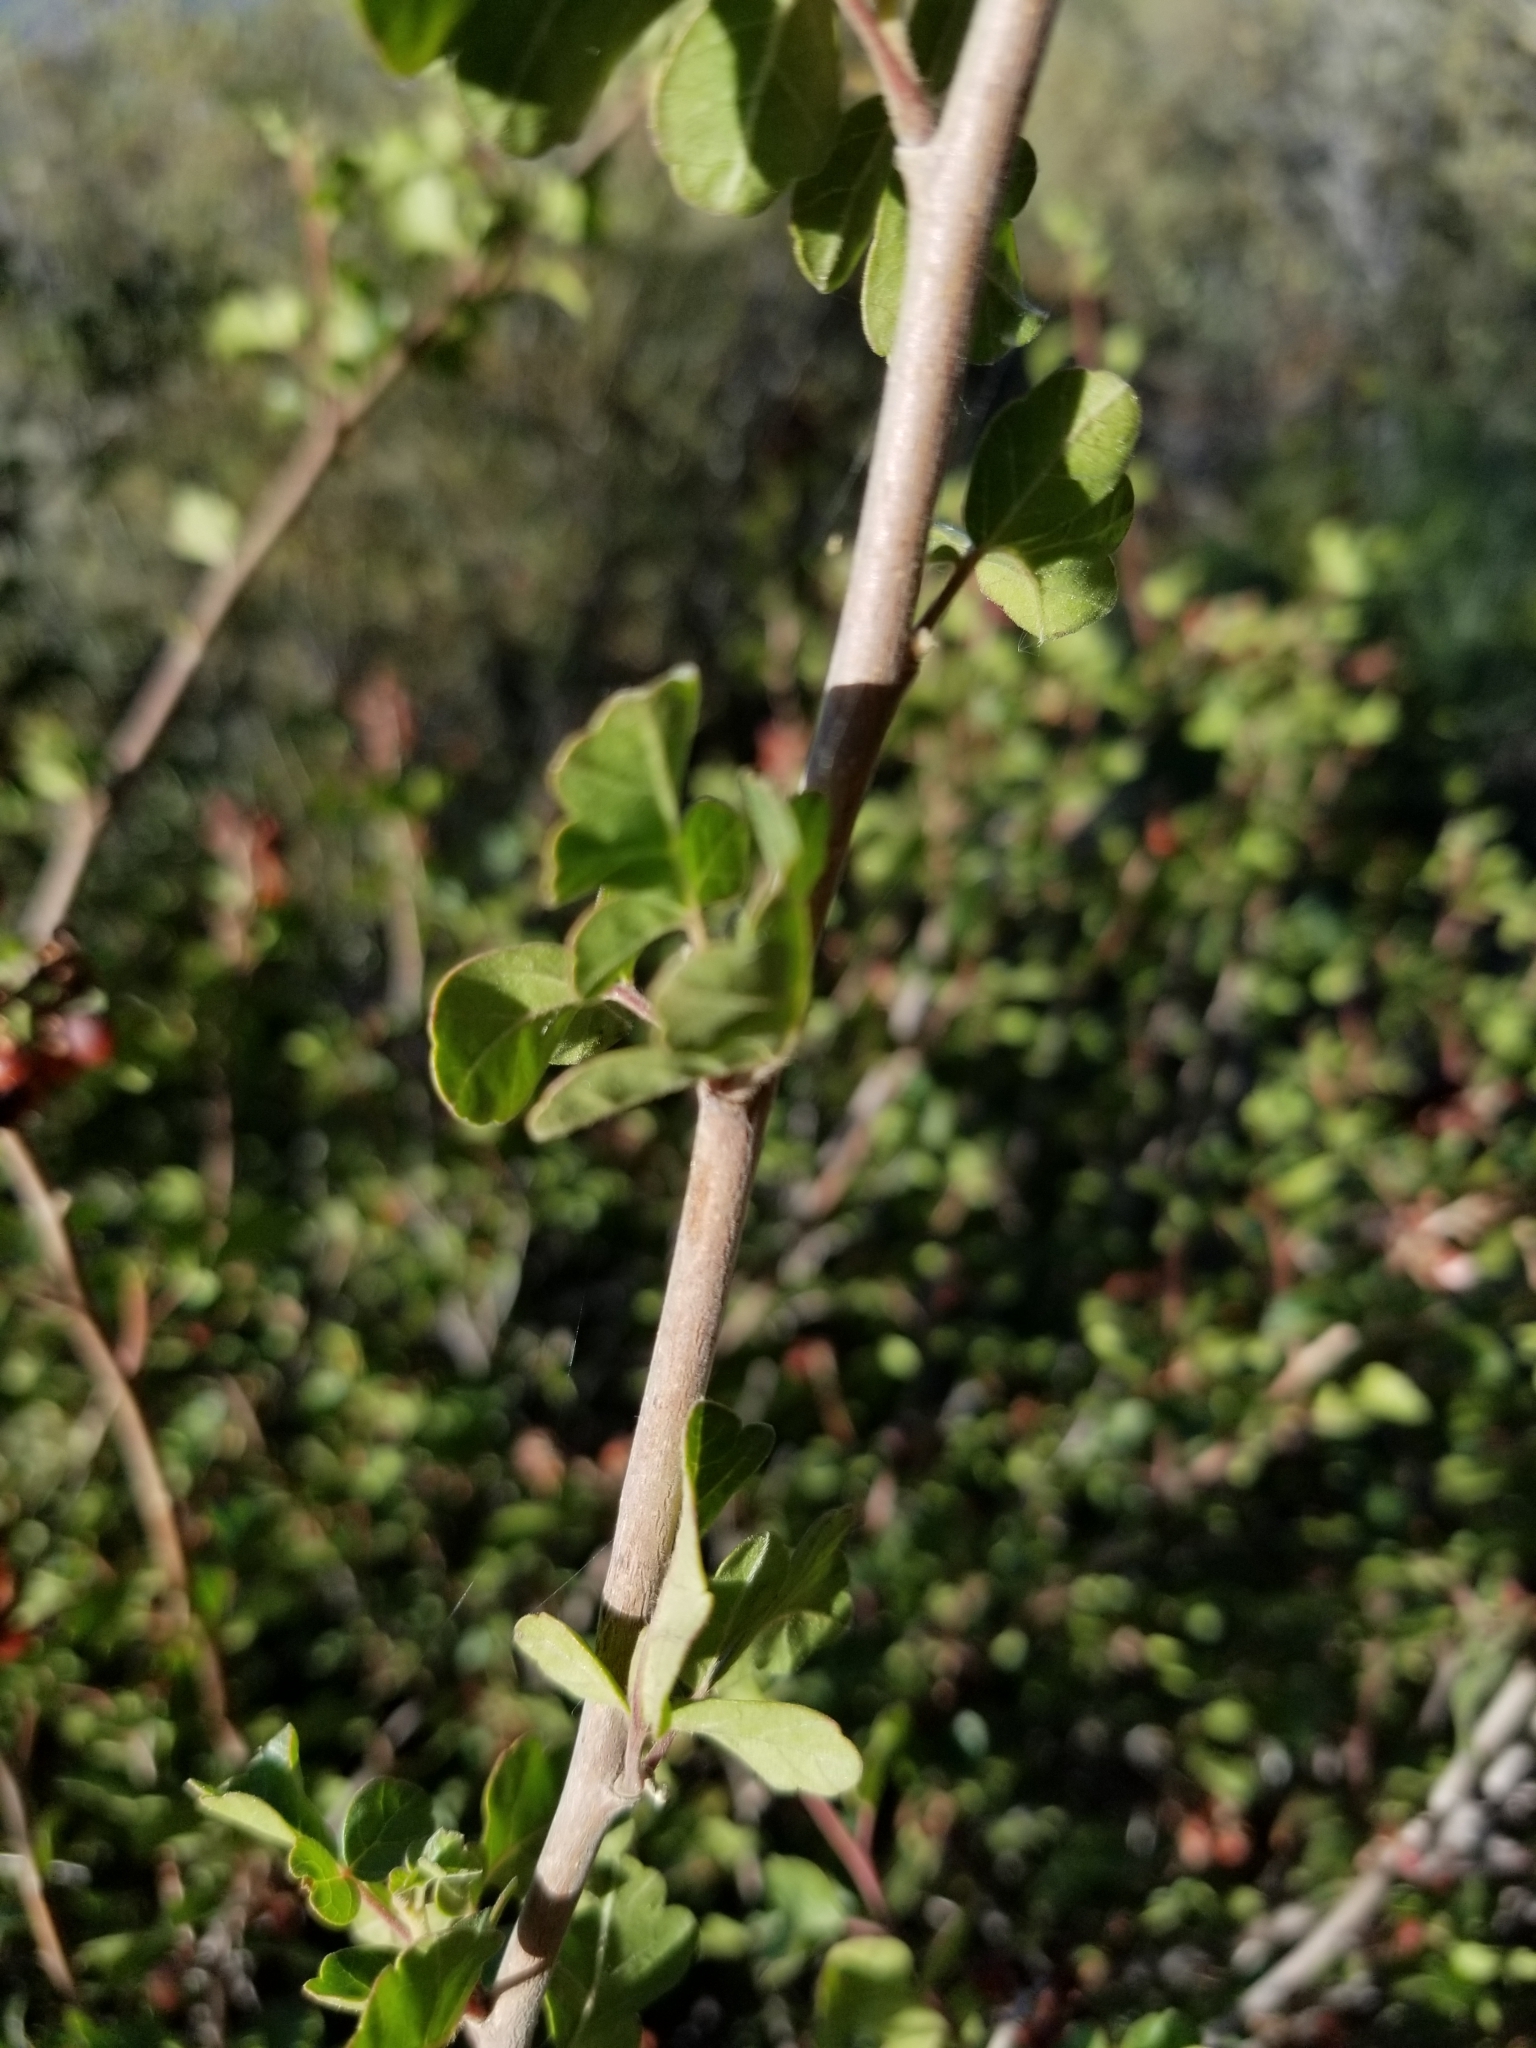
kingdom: Plantae
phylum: Tracheophyta
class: Magnoliopsida
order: Sapindales
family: Anacardiaceae
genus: Rhus
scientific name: Rhus aromatica
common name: Aromatic sumac
